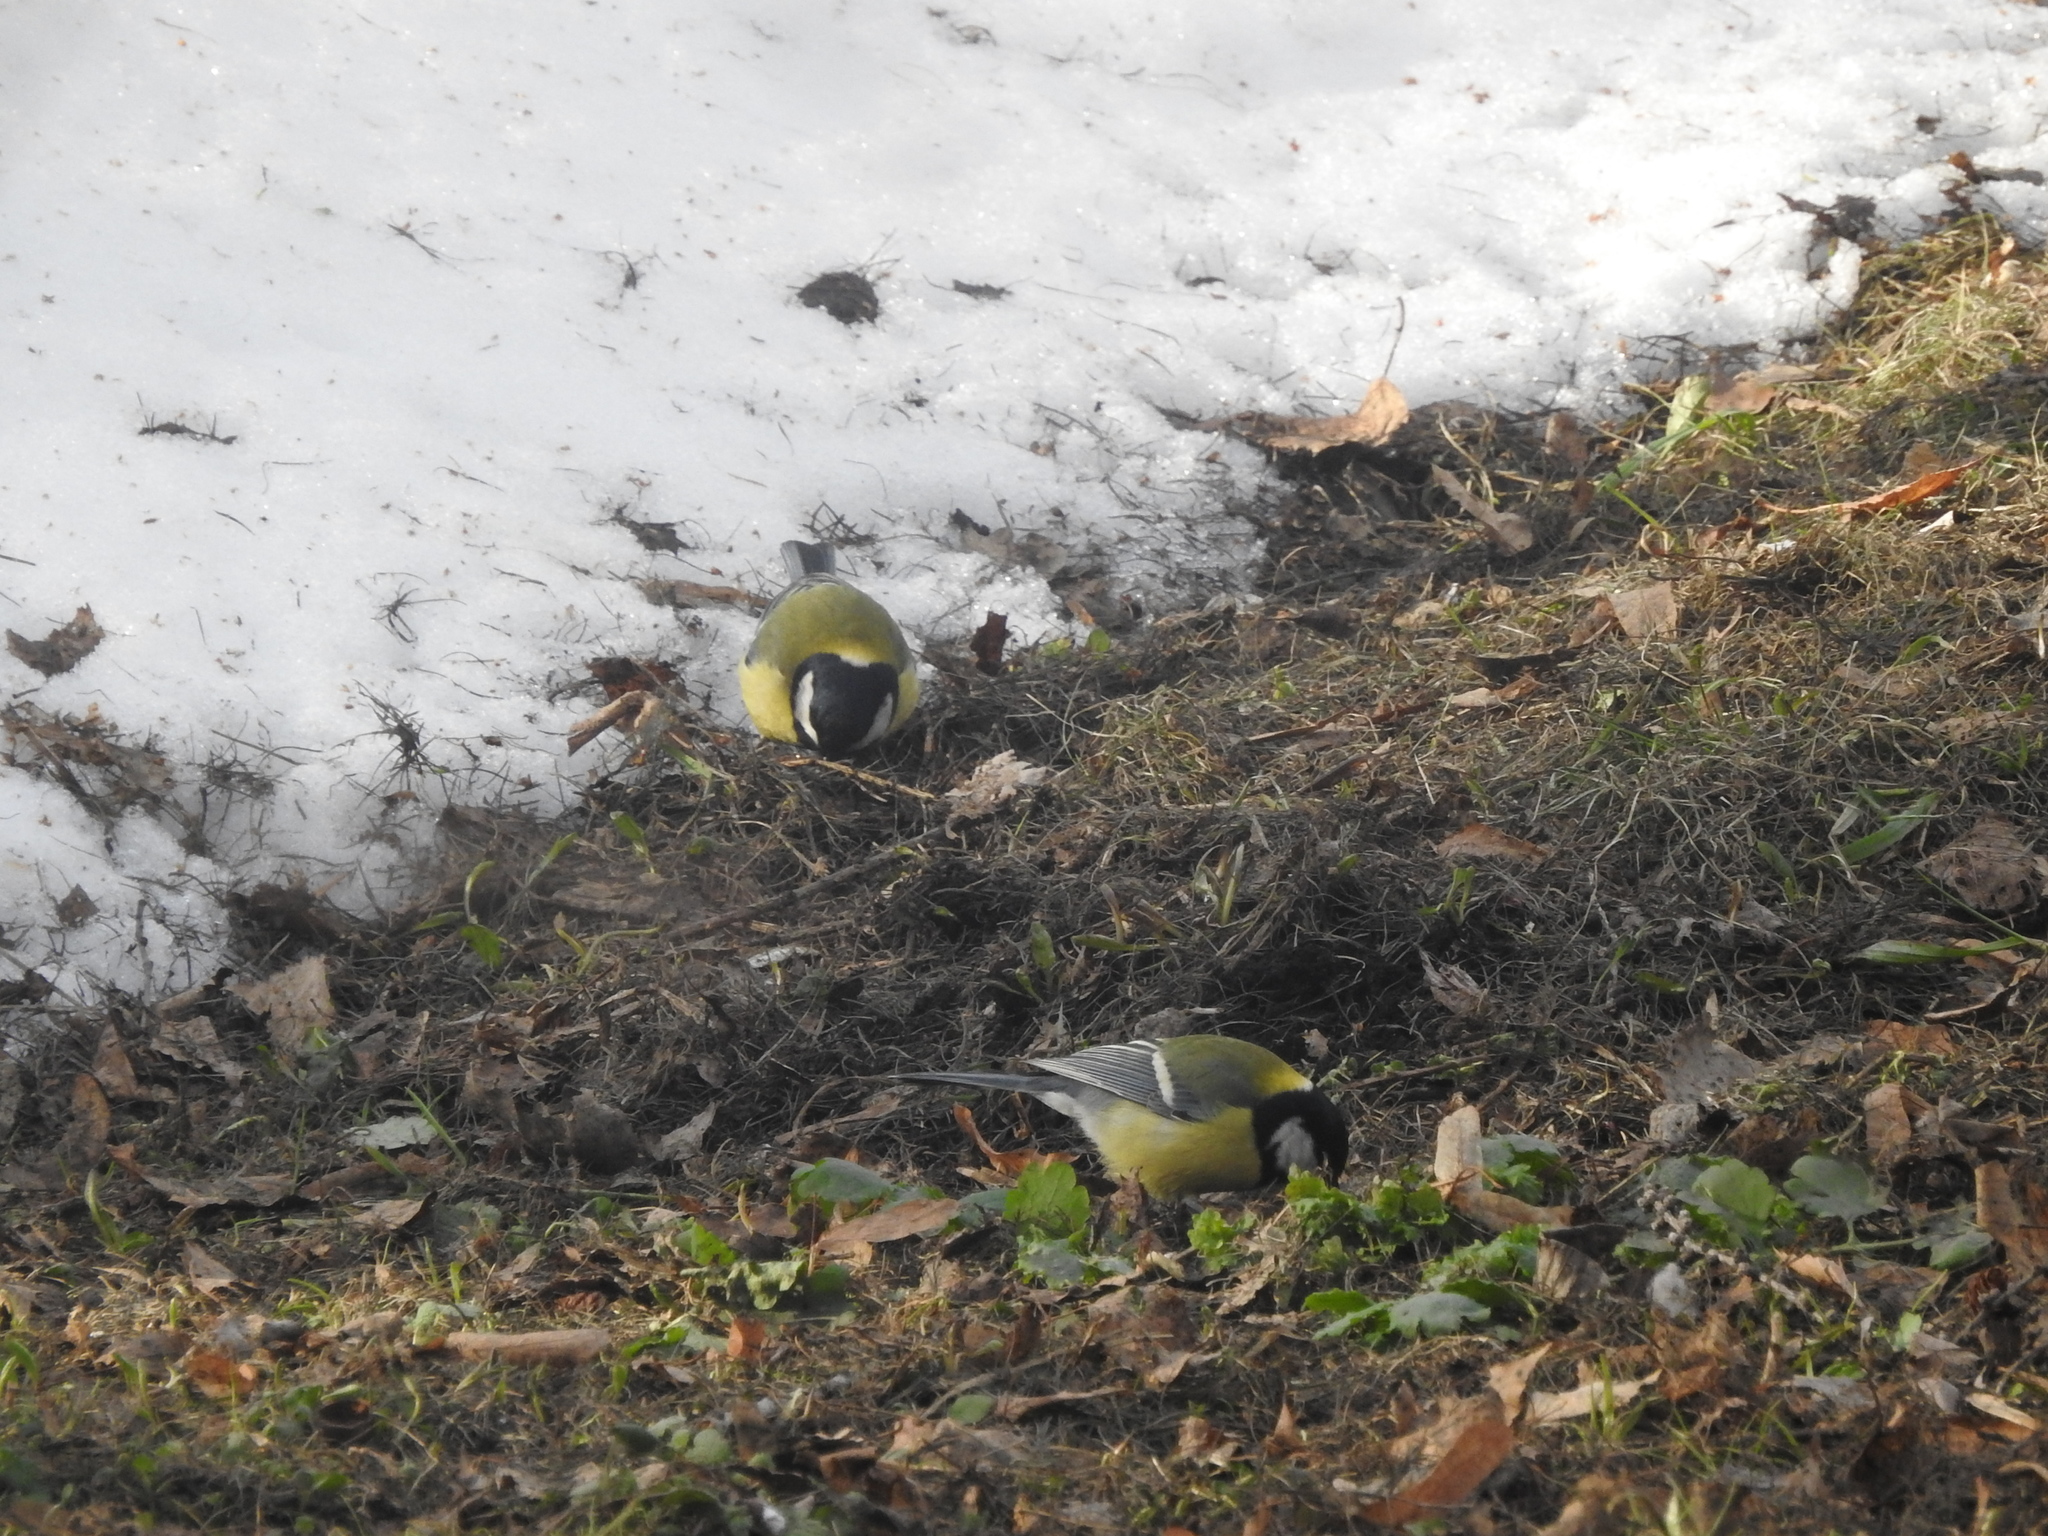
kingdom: Animalia
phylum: Chordata
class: Aves
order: Passeriformes
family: Paridae
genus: Parus
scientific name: Parus major
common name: Great tit
